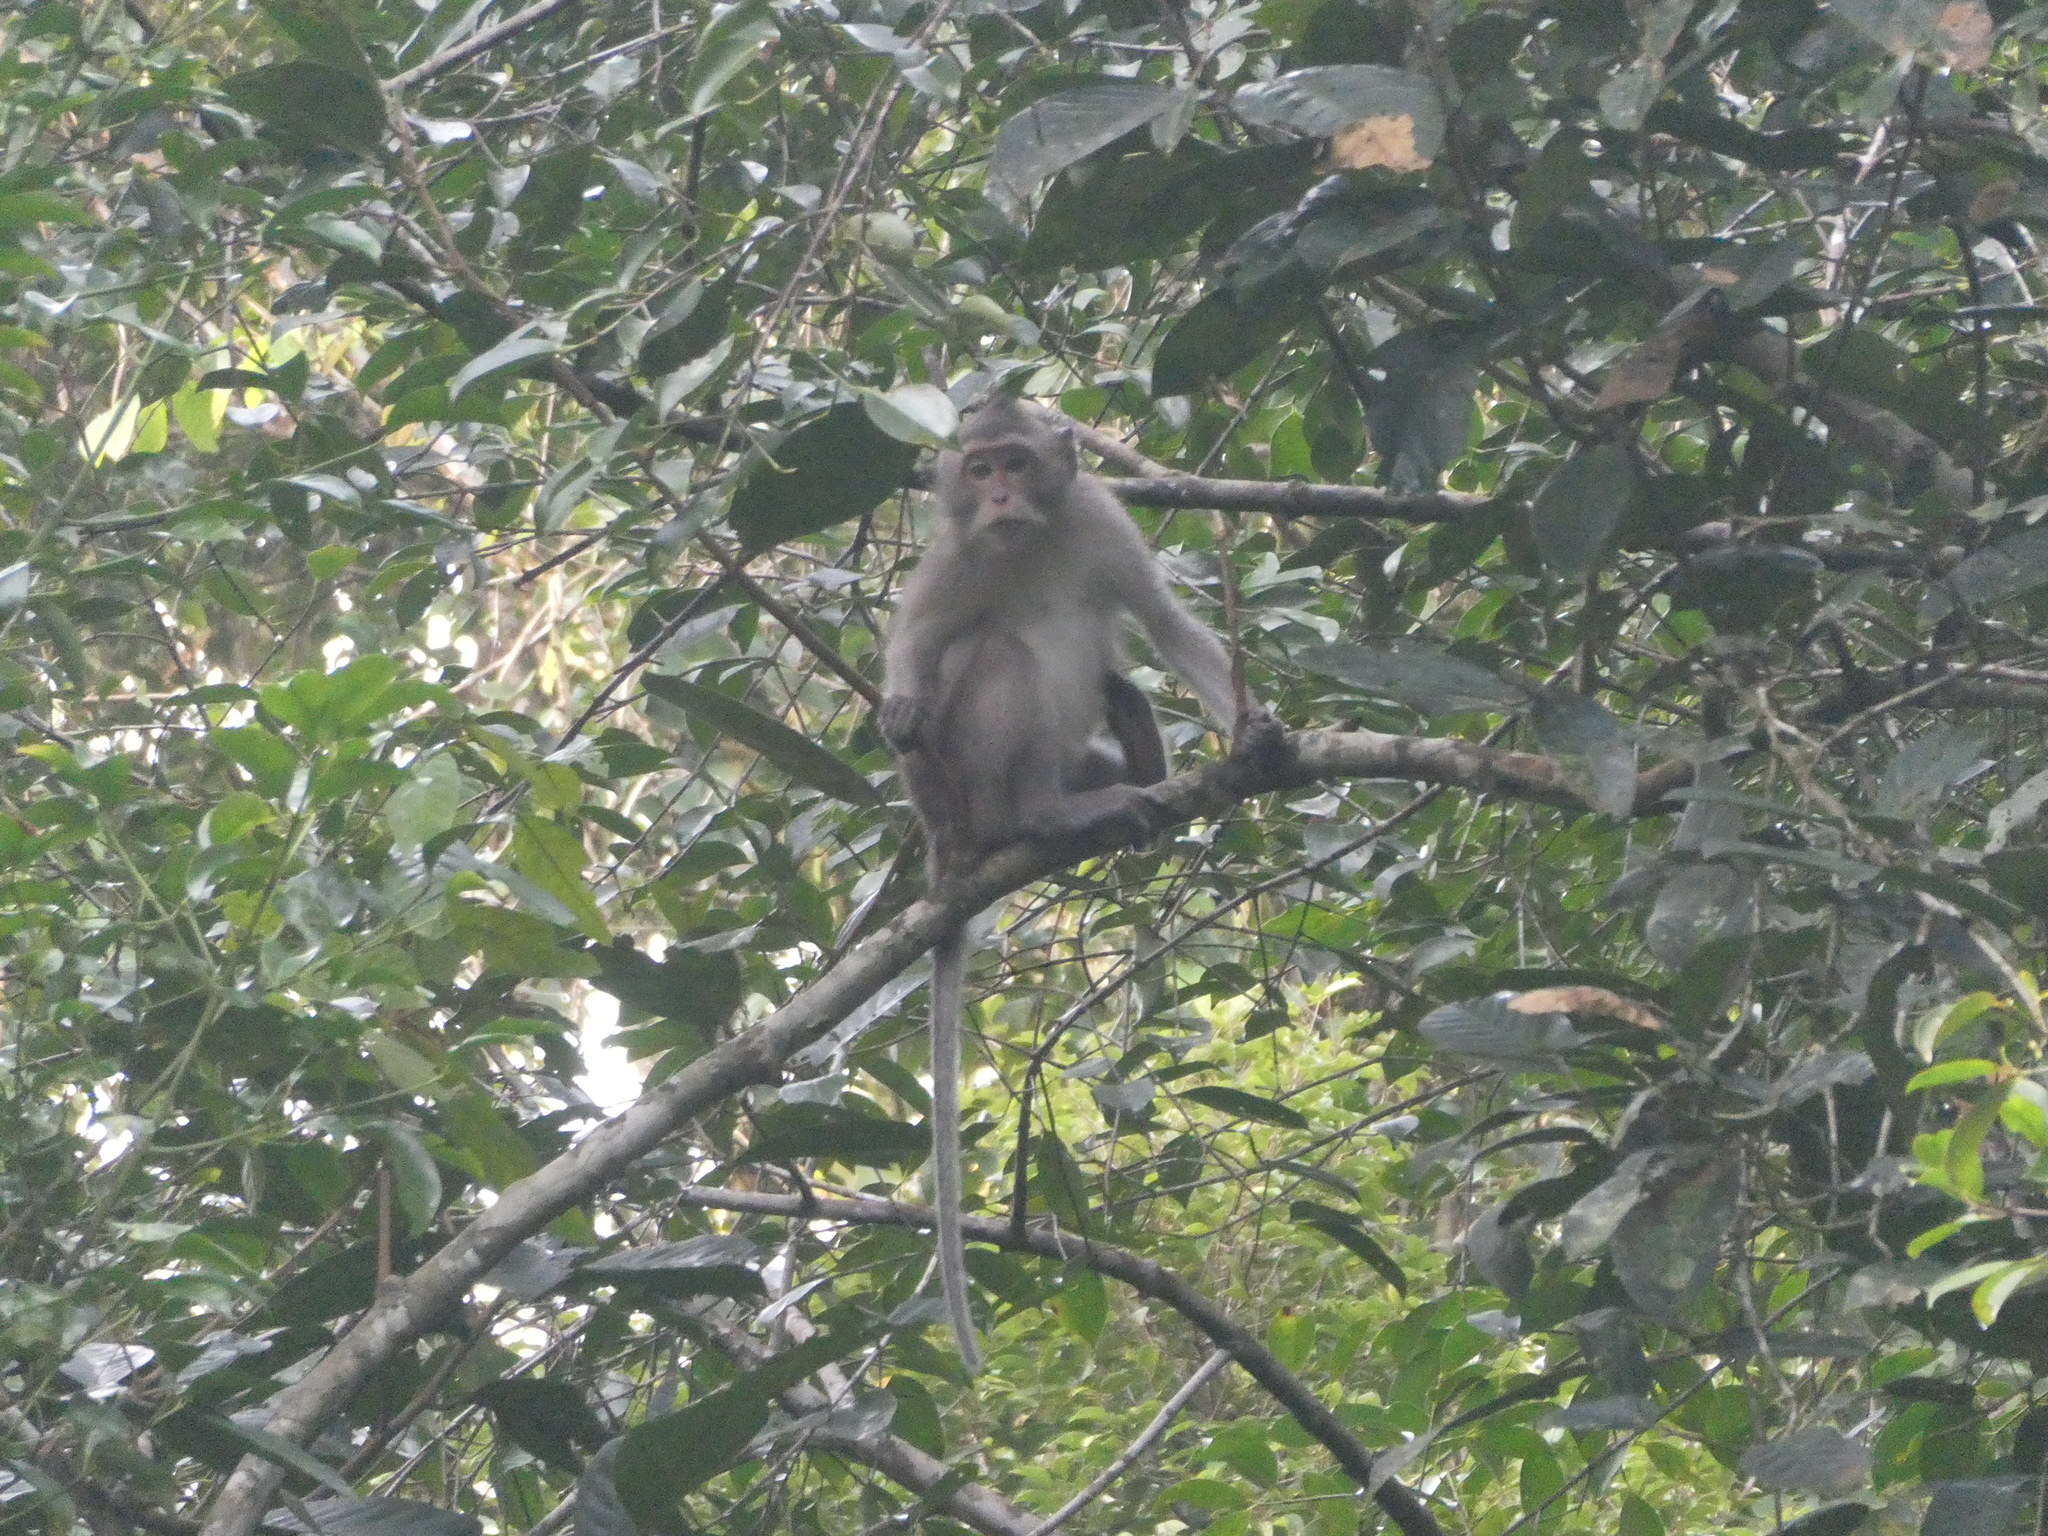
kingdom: Animalia
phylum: Chordata
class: Mammalia
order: Primates
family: Cercopithecidae
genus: Macaca
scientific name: Macaca fascicularis
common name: Crab-eating macaque
